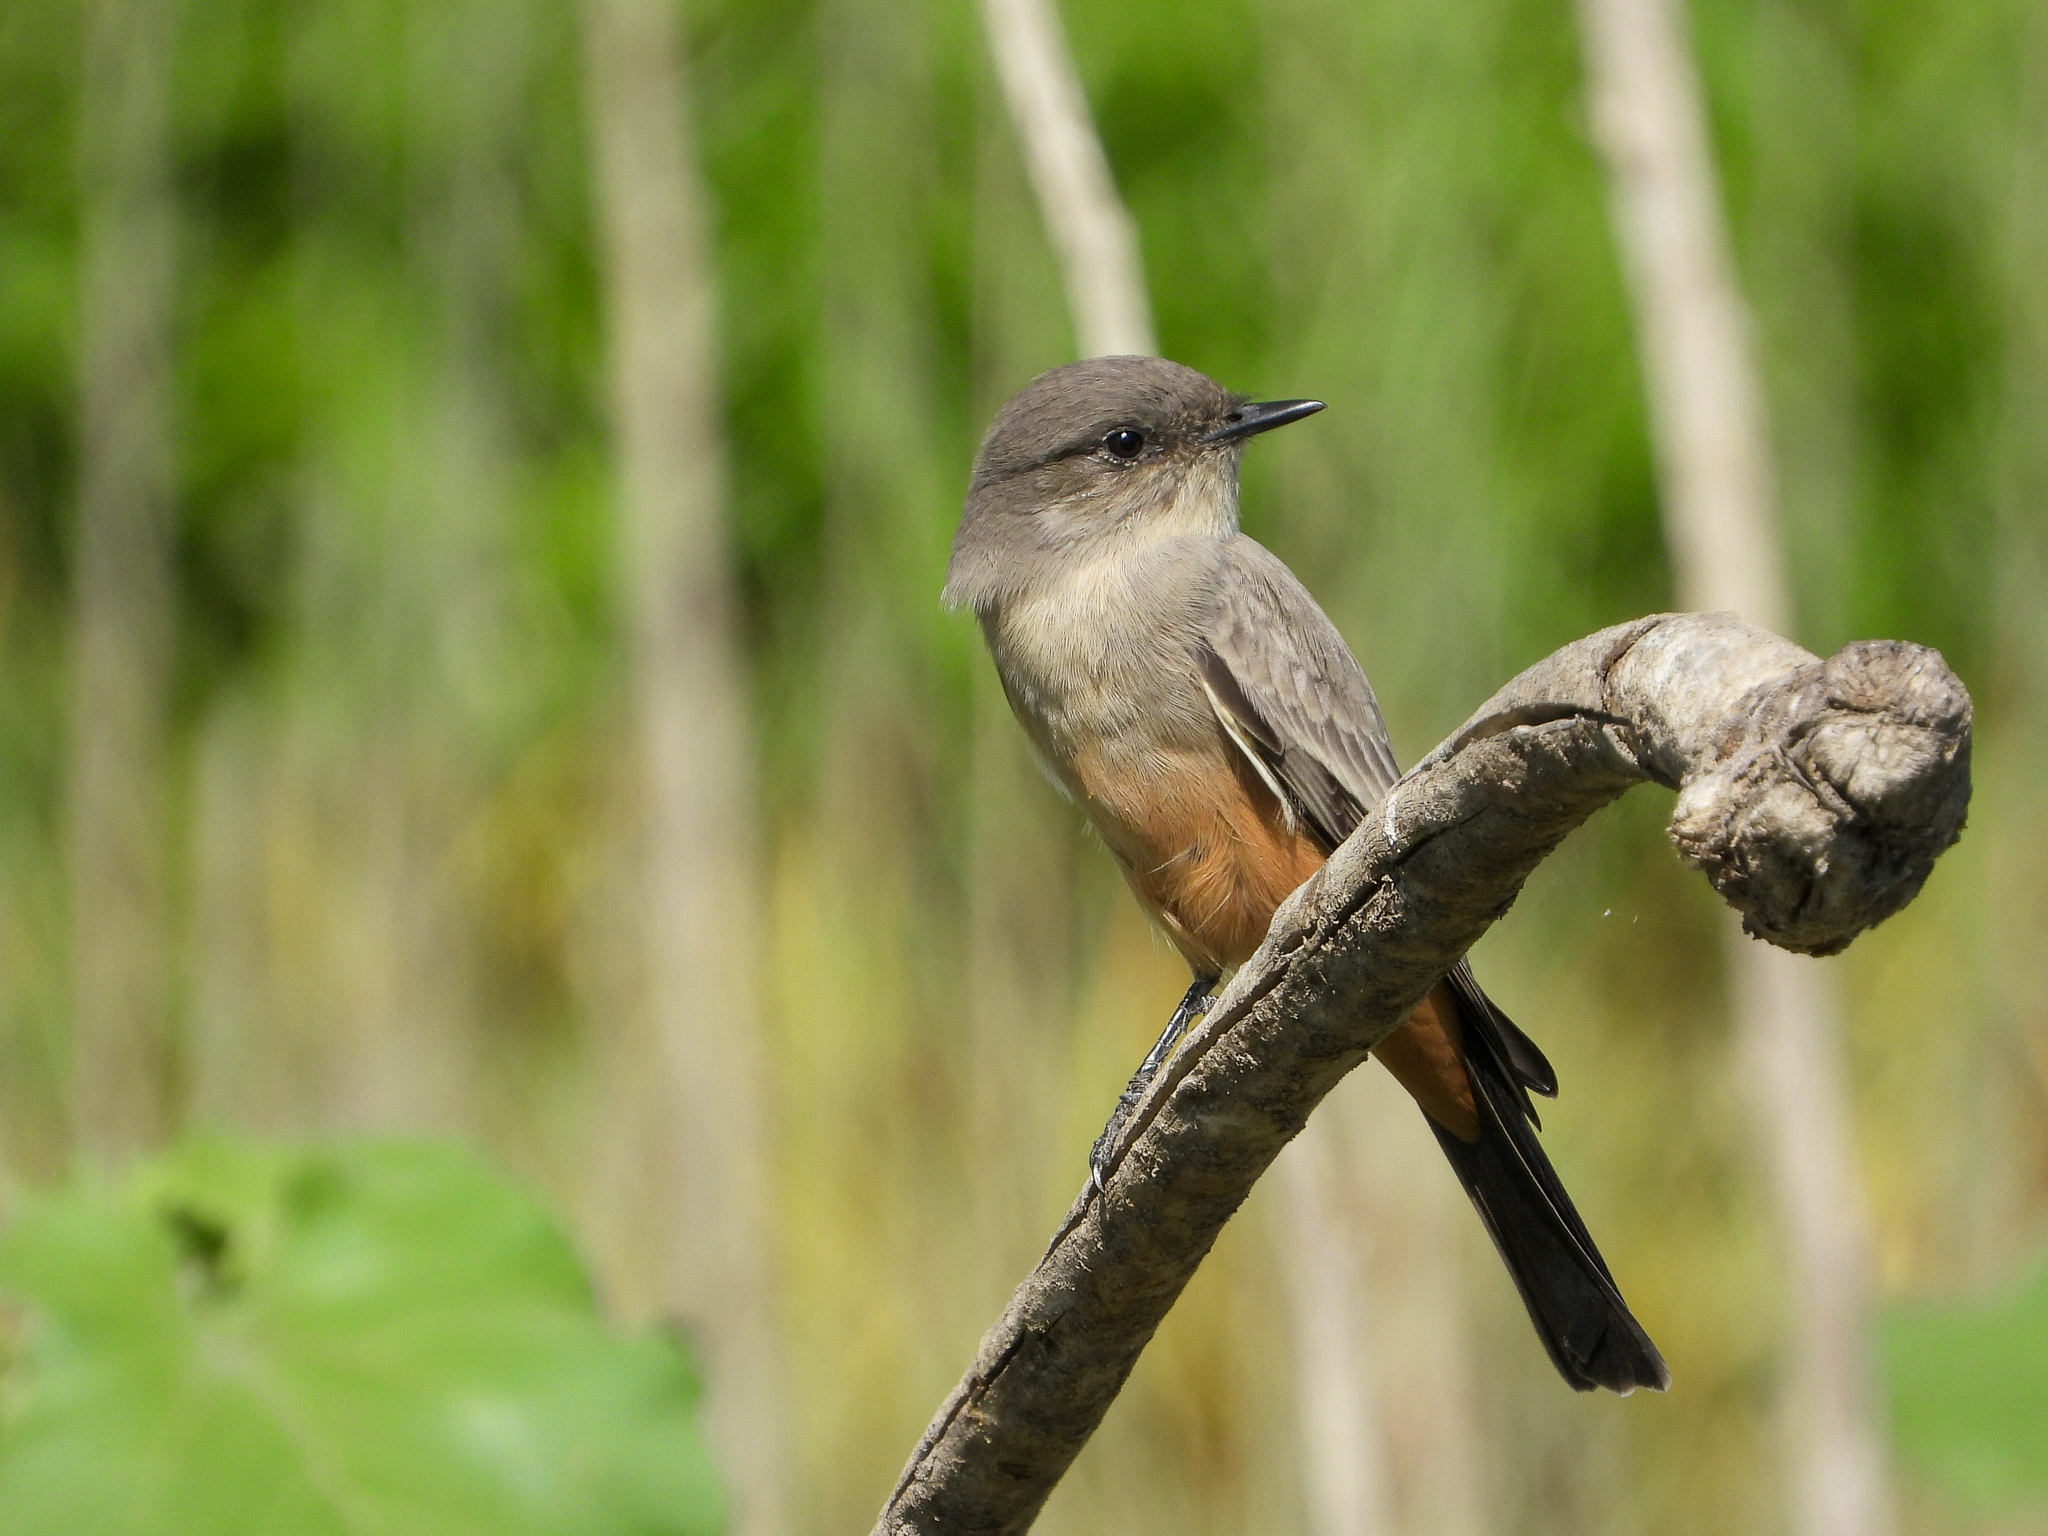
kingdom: Animalia
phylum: Chordata
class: Aves
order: Passeriformes
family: Tyrannidae
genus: Sayornis
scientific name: Sayornis saya
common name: Say's phoebe
